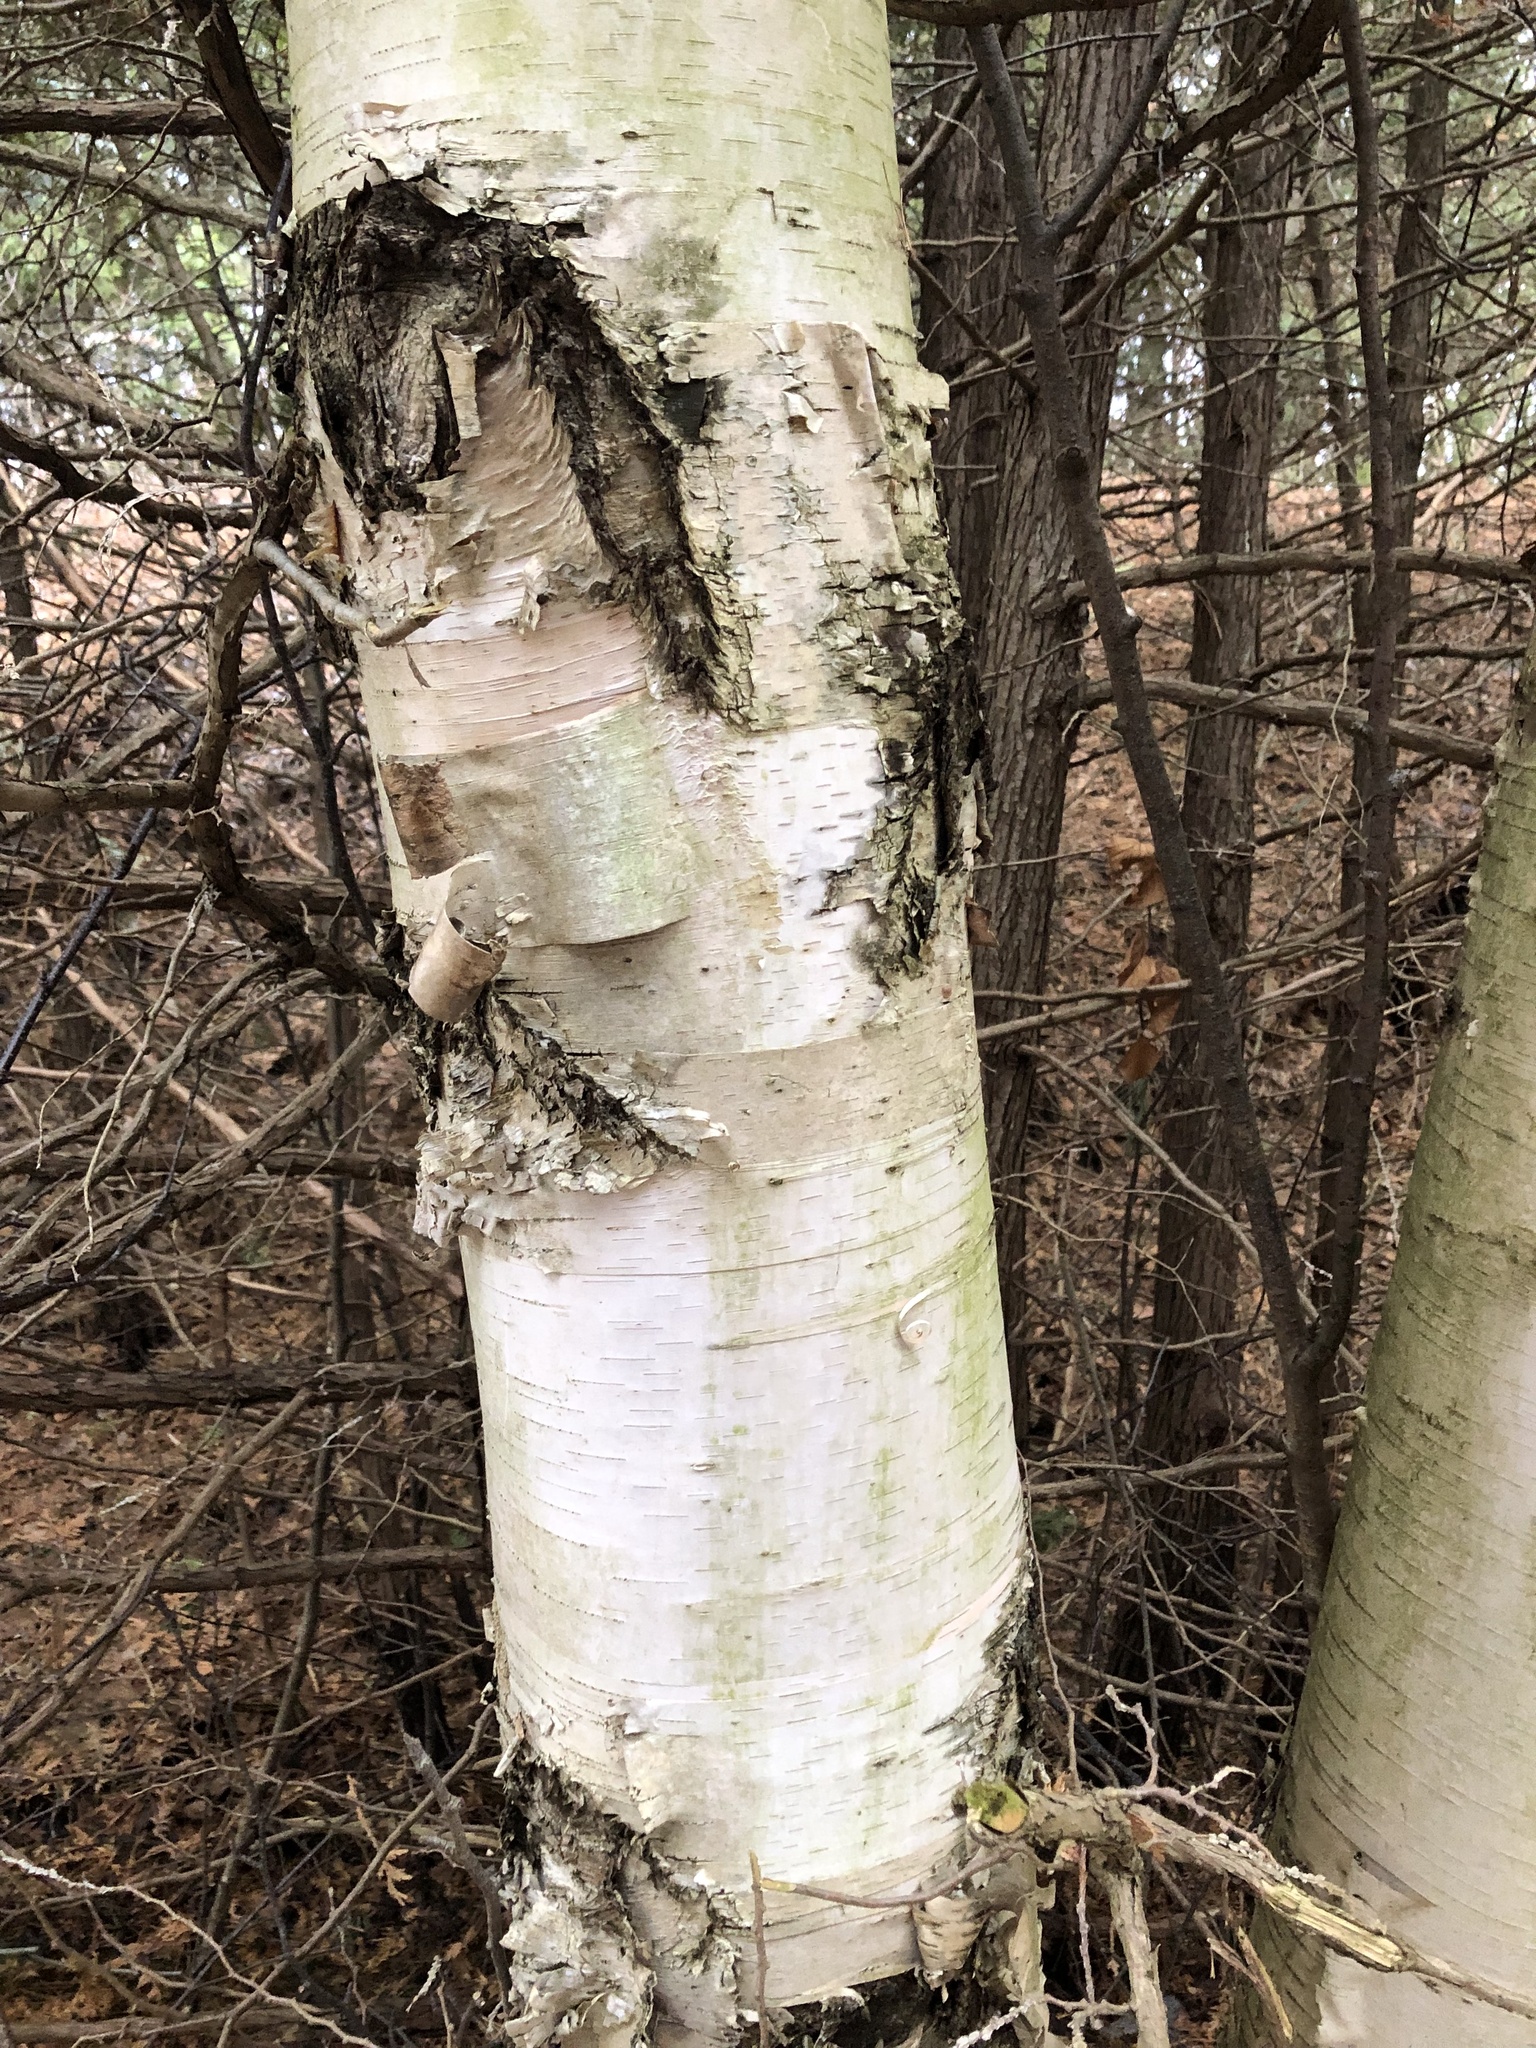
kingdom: Plantae
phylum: Tracheophyta
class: Magnoliopsida
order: Fagales
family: Betulaceae
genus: Betula
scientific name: Betula papyrifera
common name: Paper birch
